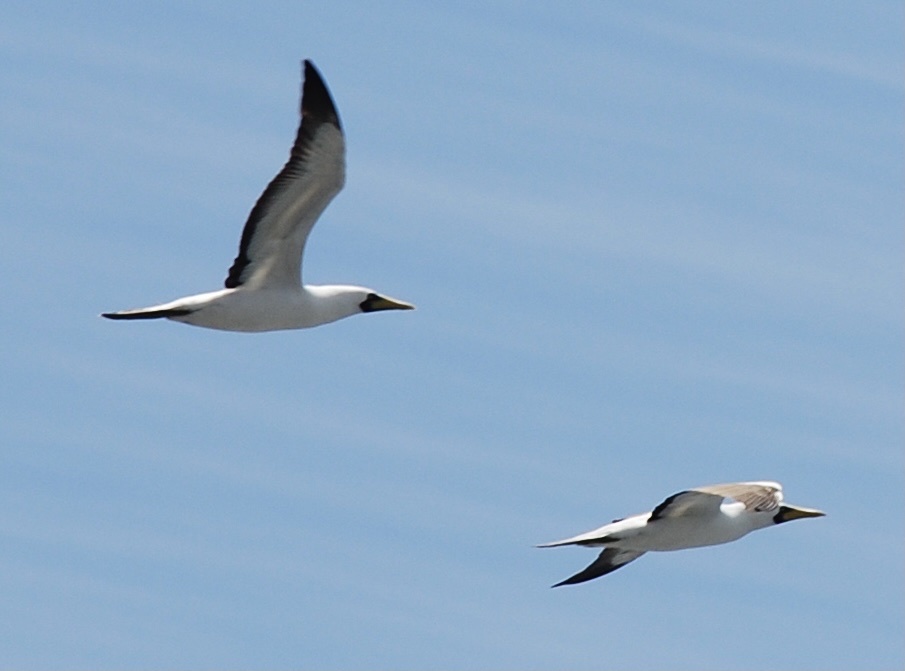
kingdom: Animalia
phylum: Chordata
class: Aves
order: Suliformes
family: Sulidae
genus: Sula
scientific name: Sula dactylatra
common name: Masked booby
